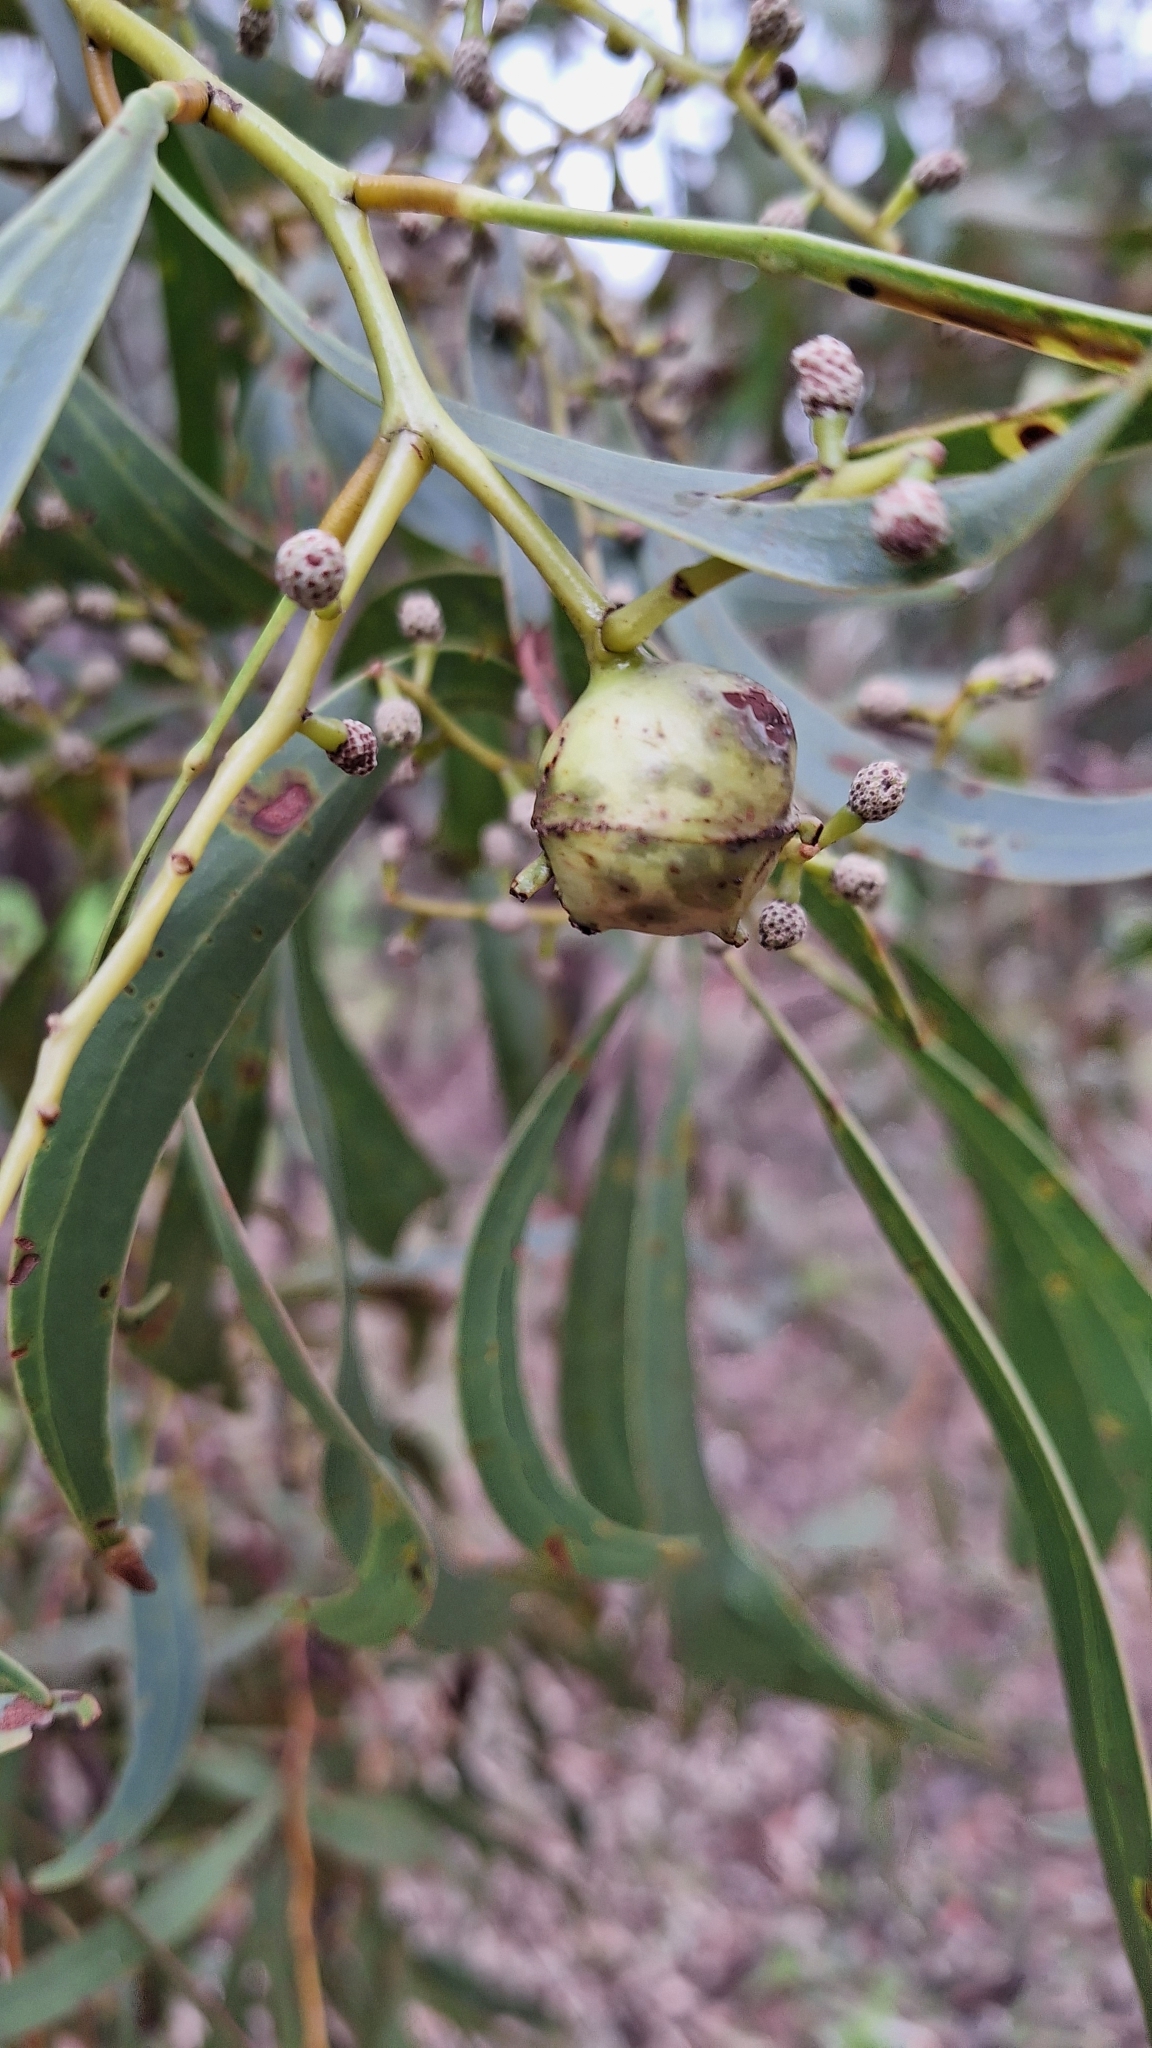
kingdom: Animalia
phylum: Arthropoda
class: Insecta
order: Hymenoptera
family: Pteromalidae
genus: Trichilogaster
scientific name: Trichilogaster signiventris
